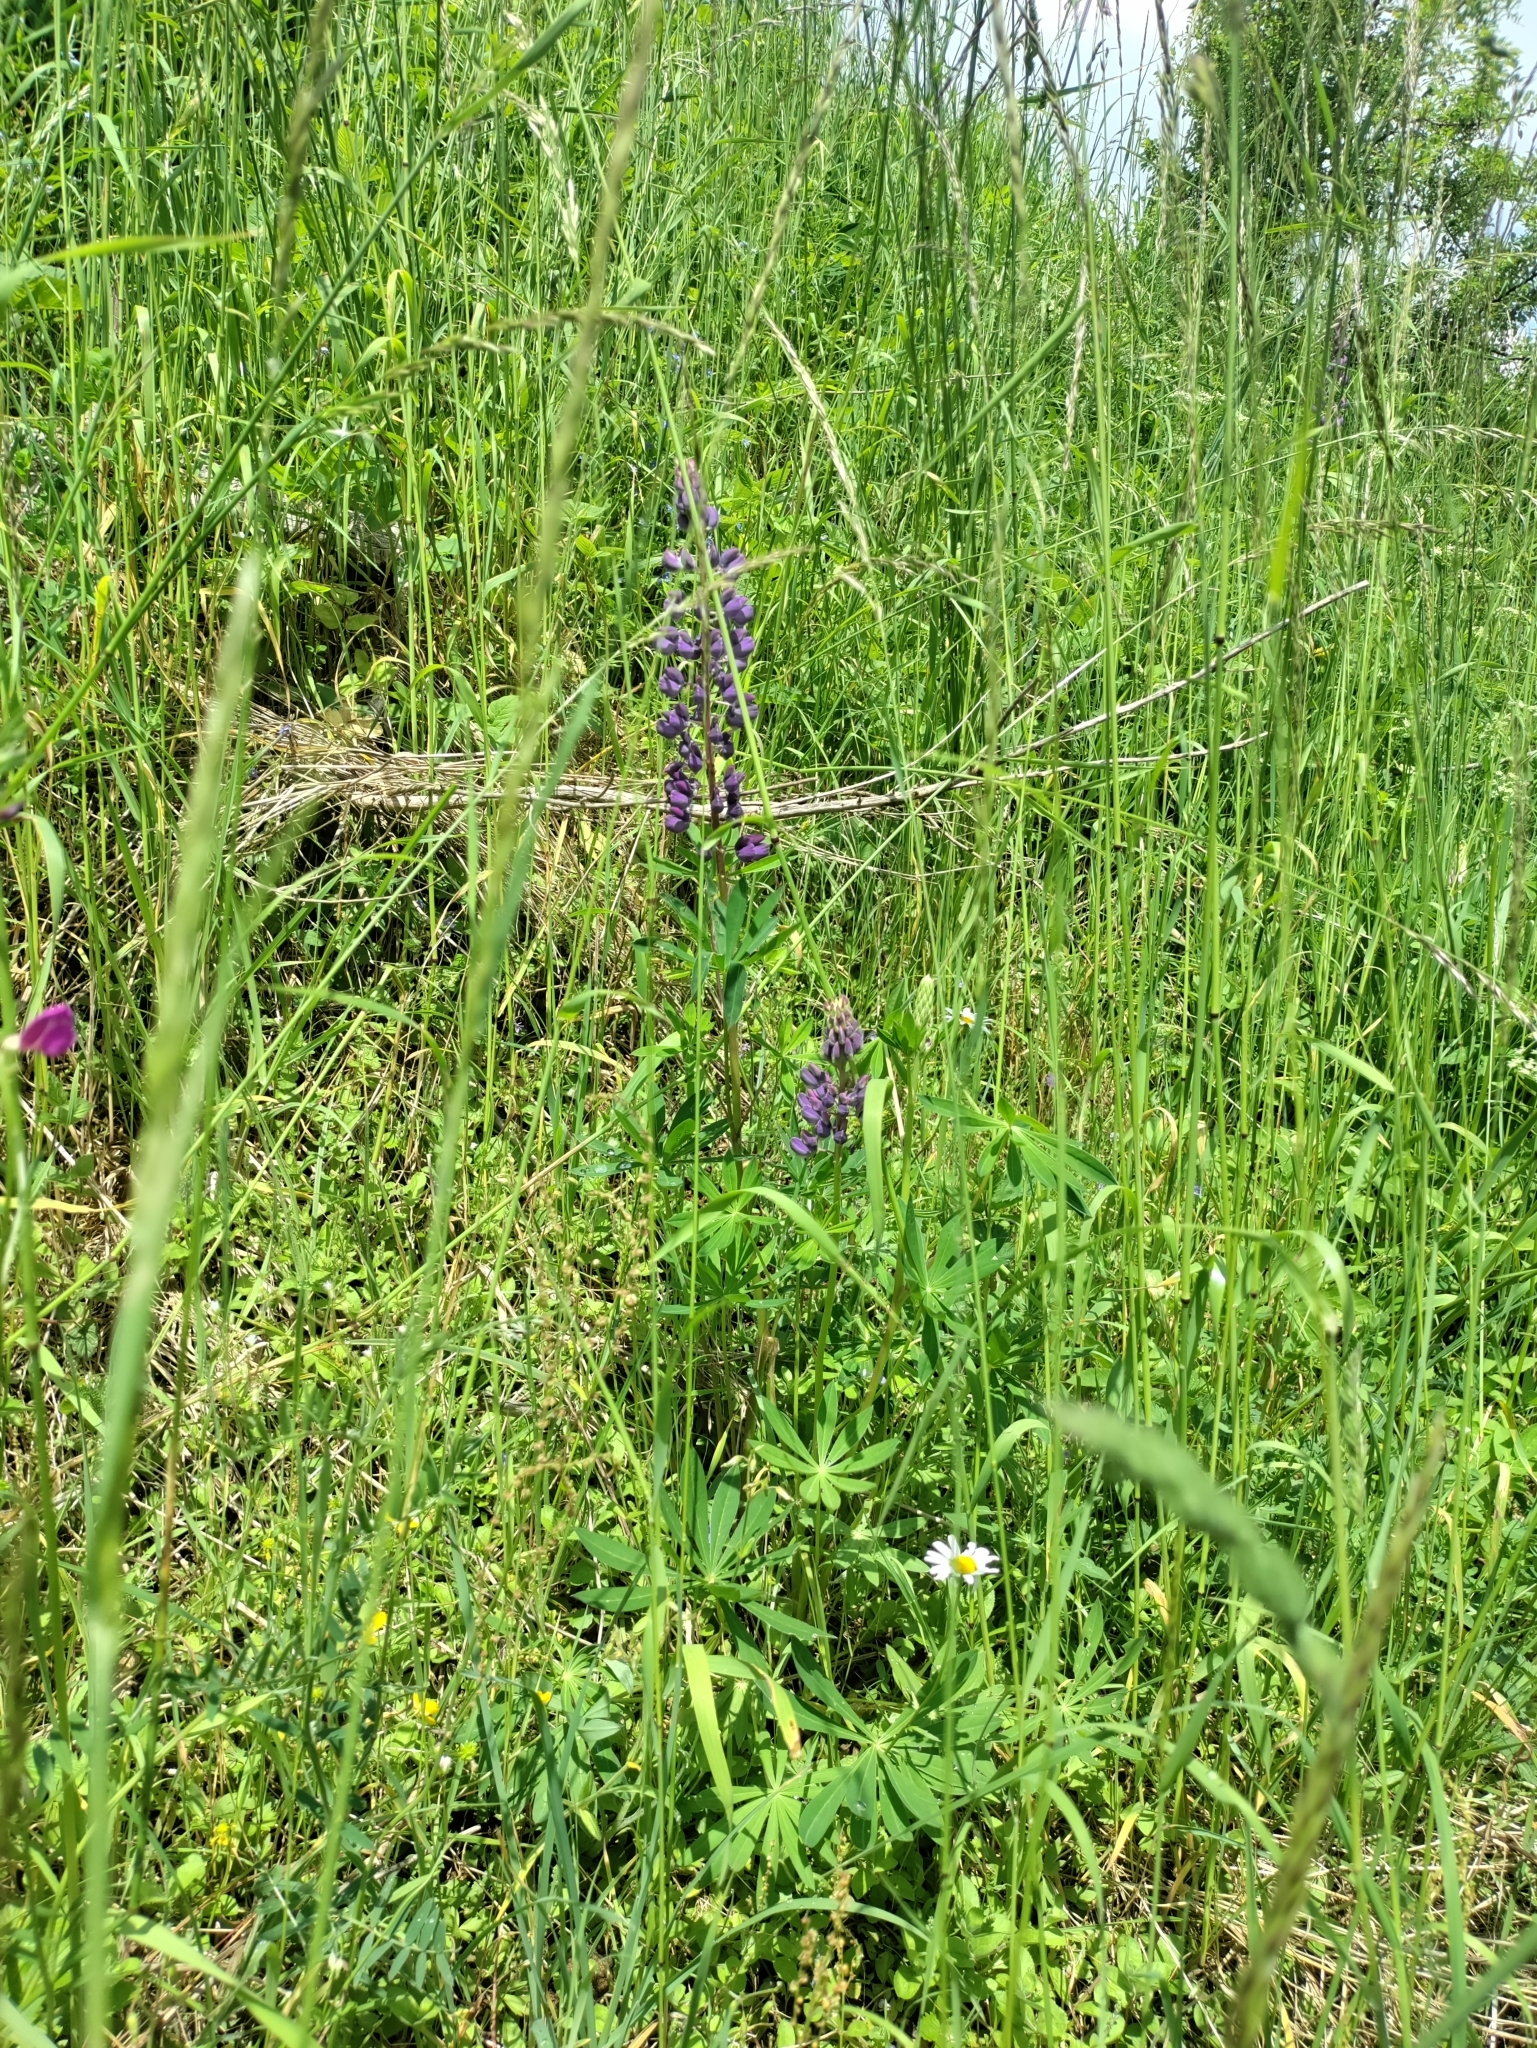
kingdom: Plantae
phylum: Tracheophyta
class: Magnoliopsida
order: Fabales
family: Fabaceae
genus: Lupinus
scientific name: Lupinus polyphyllus
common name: Garden lupin
